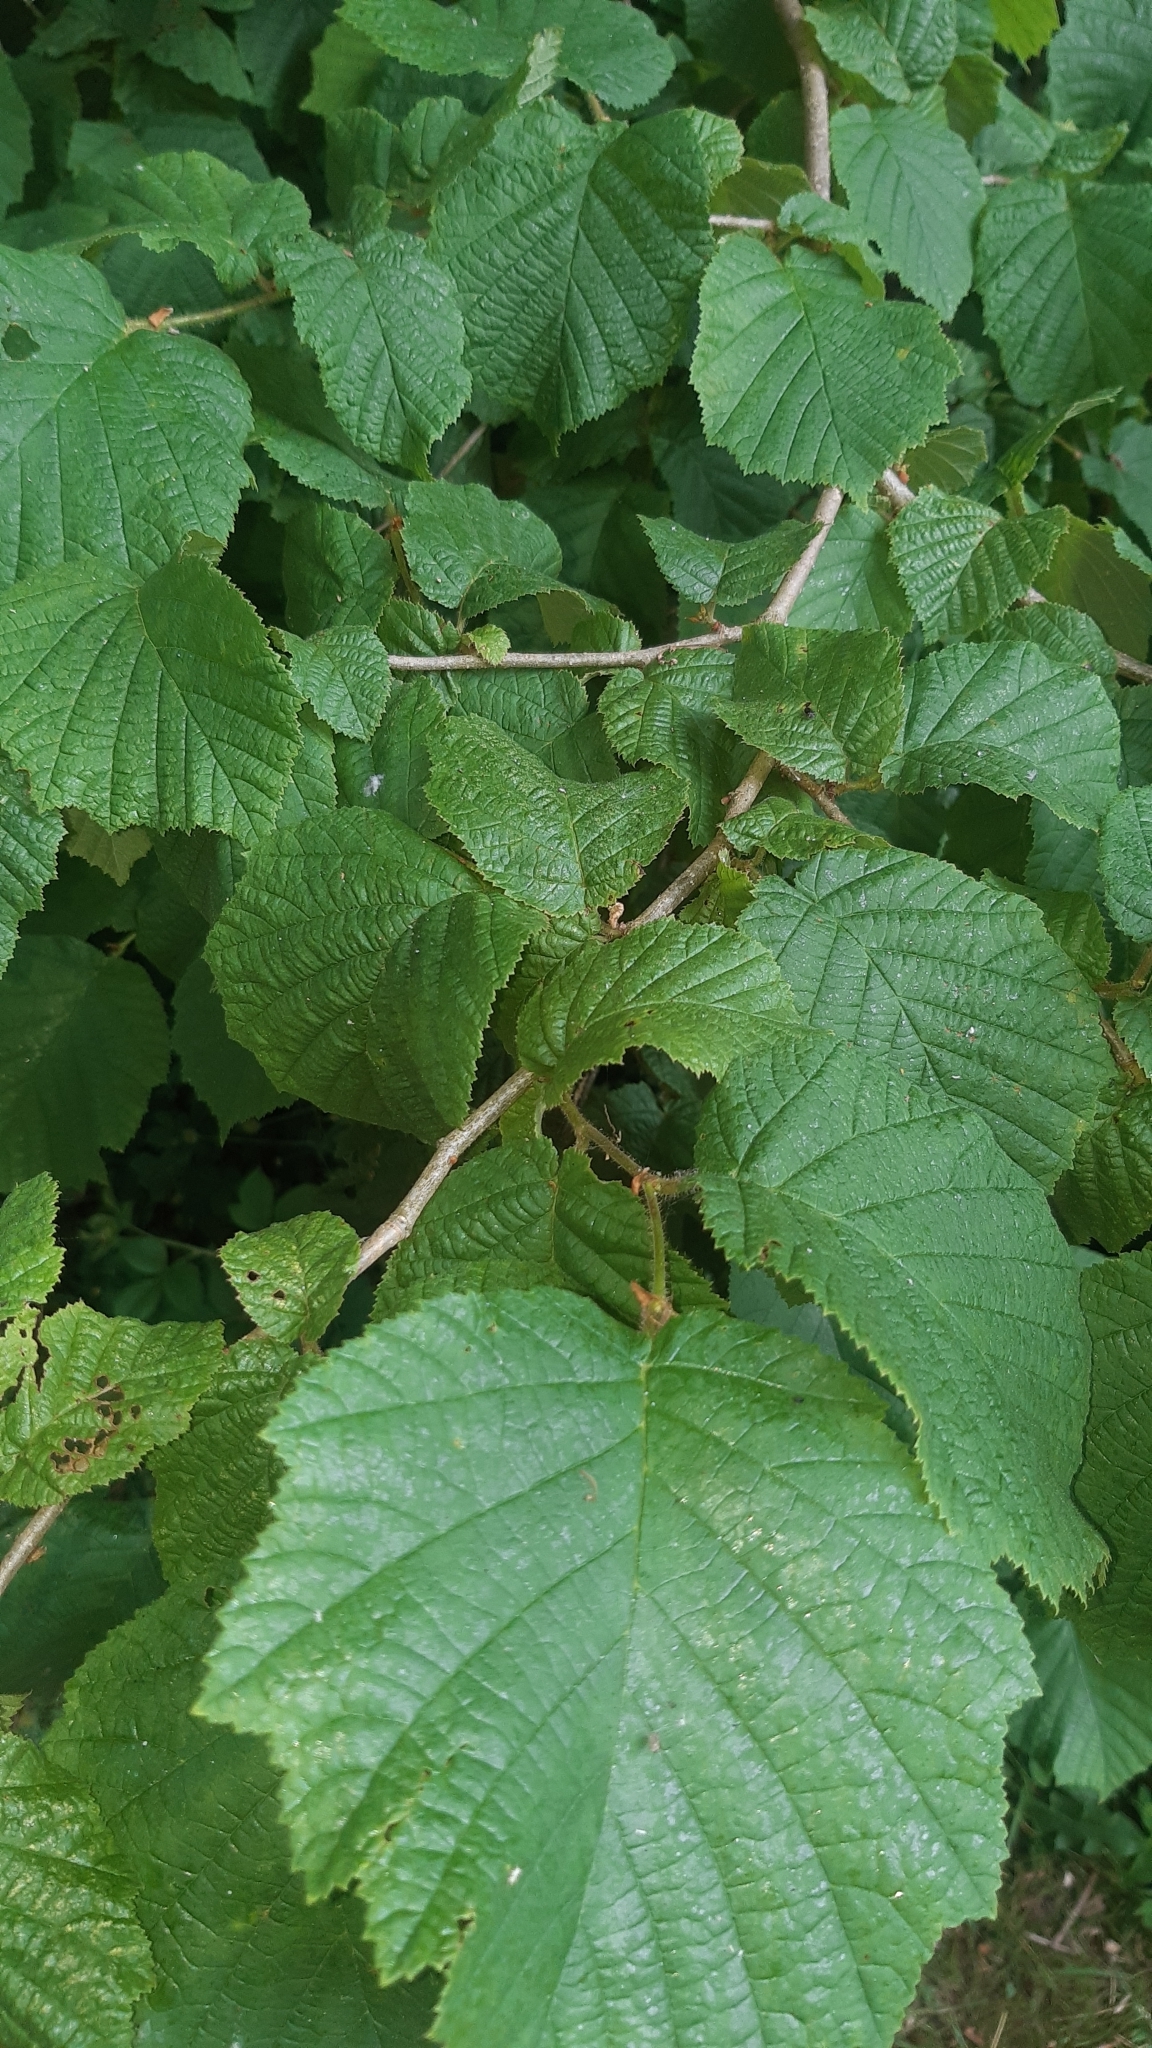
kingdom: Plantae
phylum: Tracheophyta
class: Magnoliopsida
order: Fagales
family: Betulaceae
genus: Corylus
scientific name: Corylus avellana
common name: European hazel
